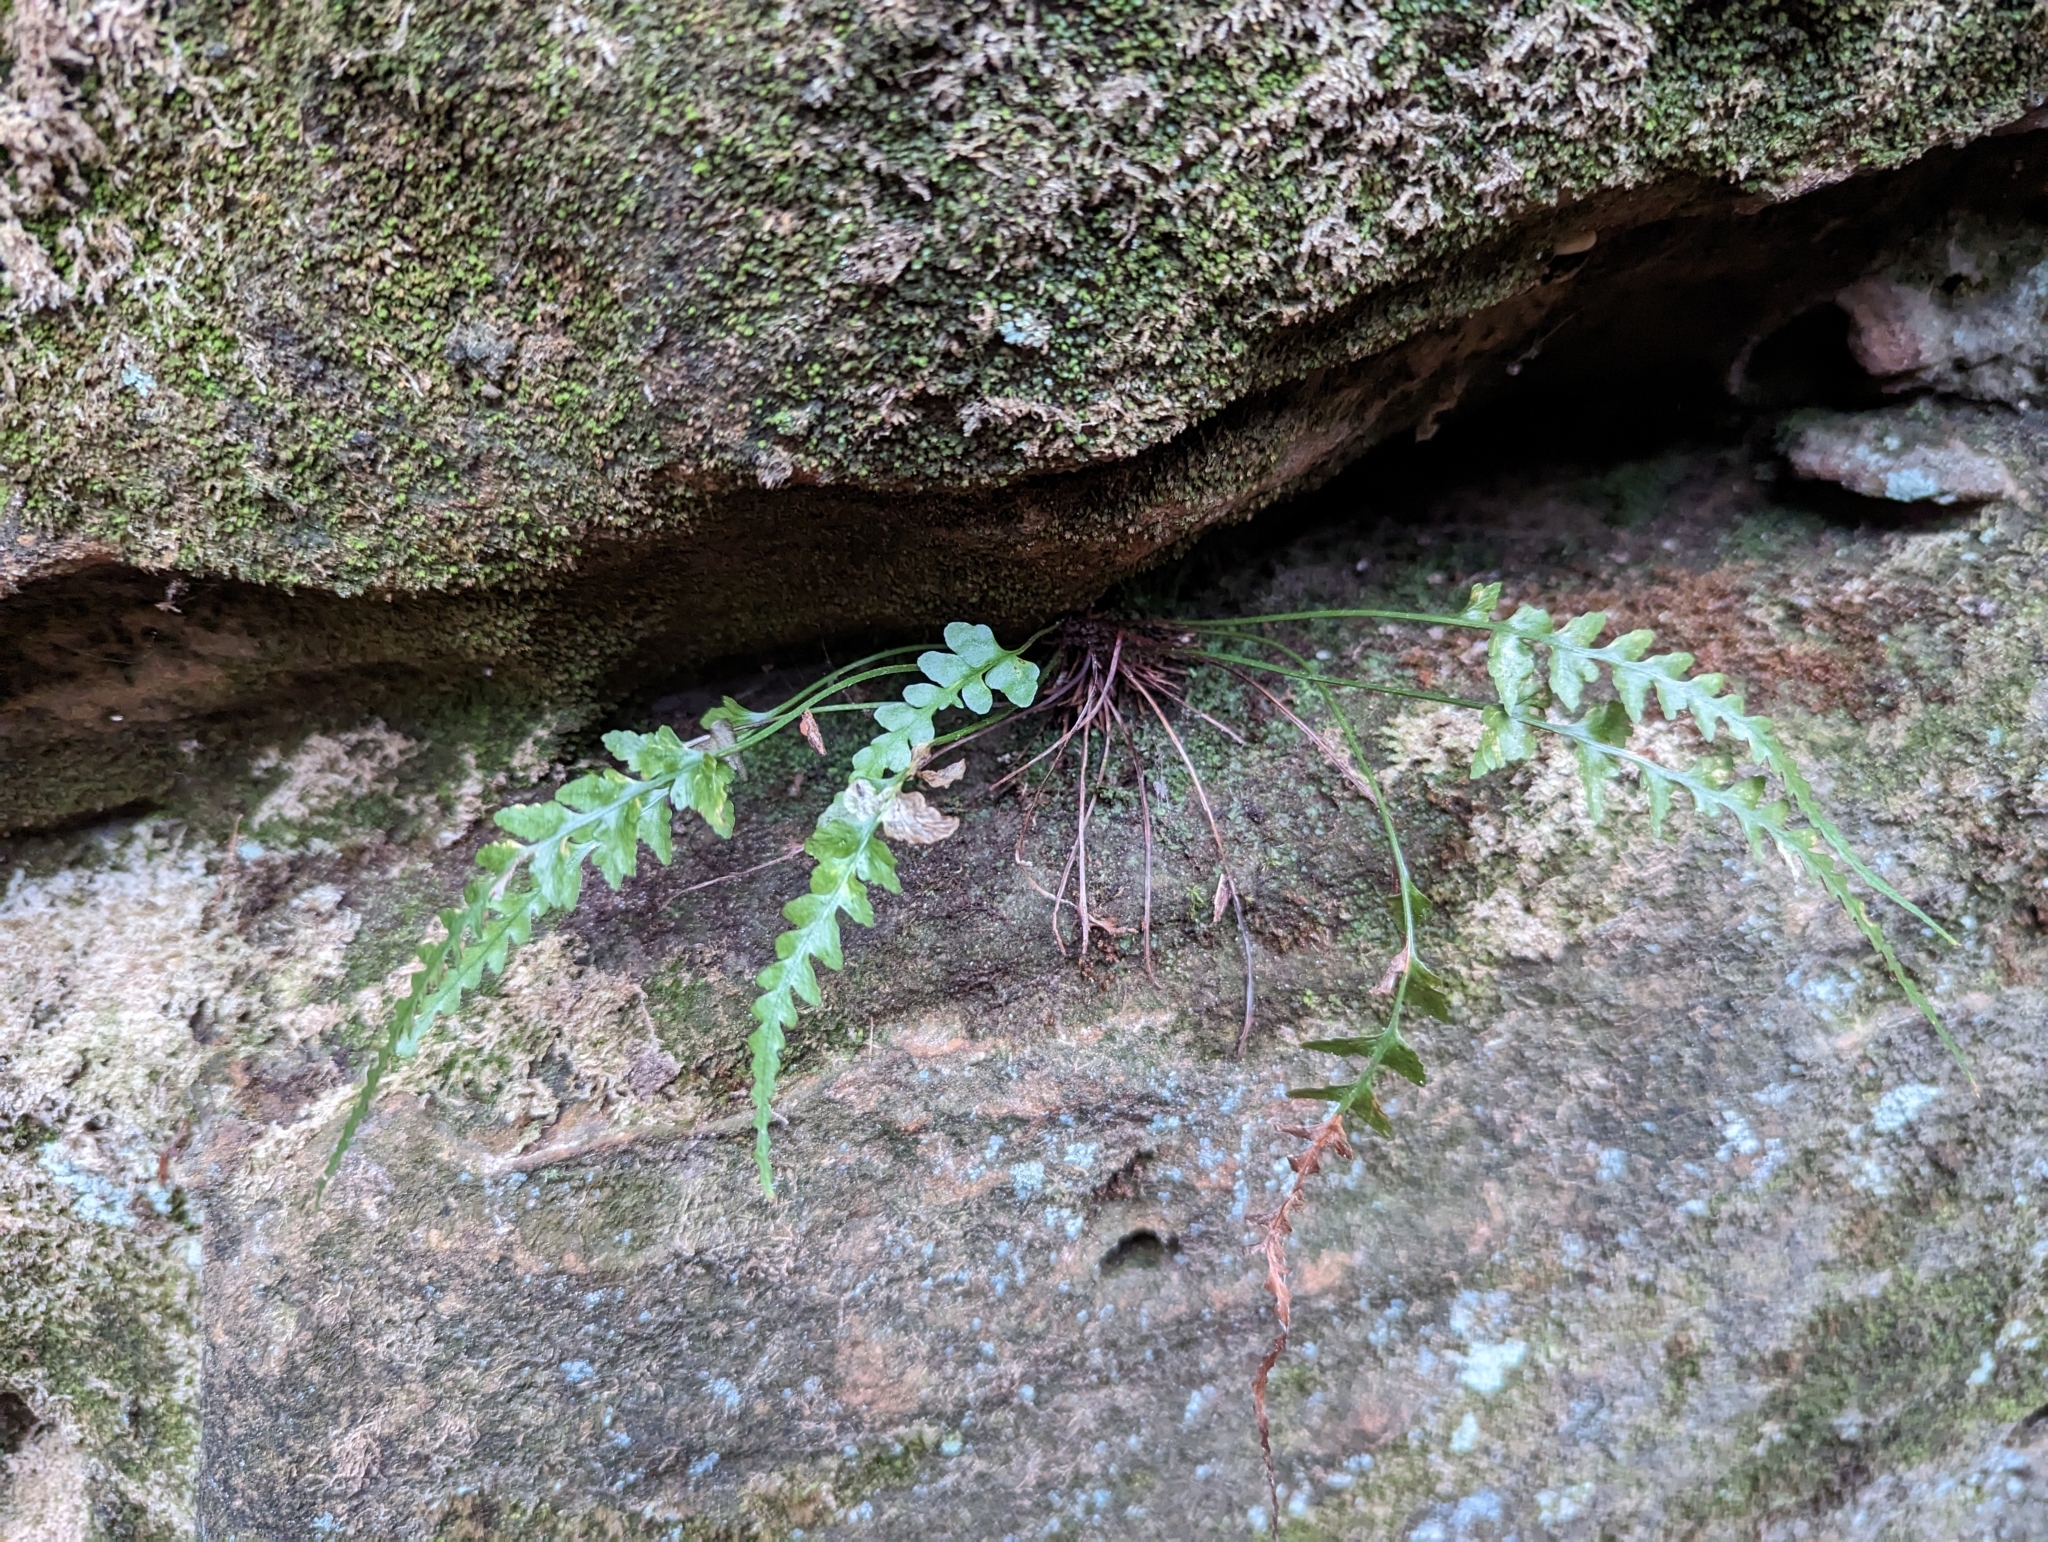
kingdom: Plantae
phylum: Tracheophyta
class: Polypodiopsida
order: Polypodiales
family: Aspleniaceae
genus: Asplenium
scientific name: Asplenium pinnatifidum
